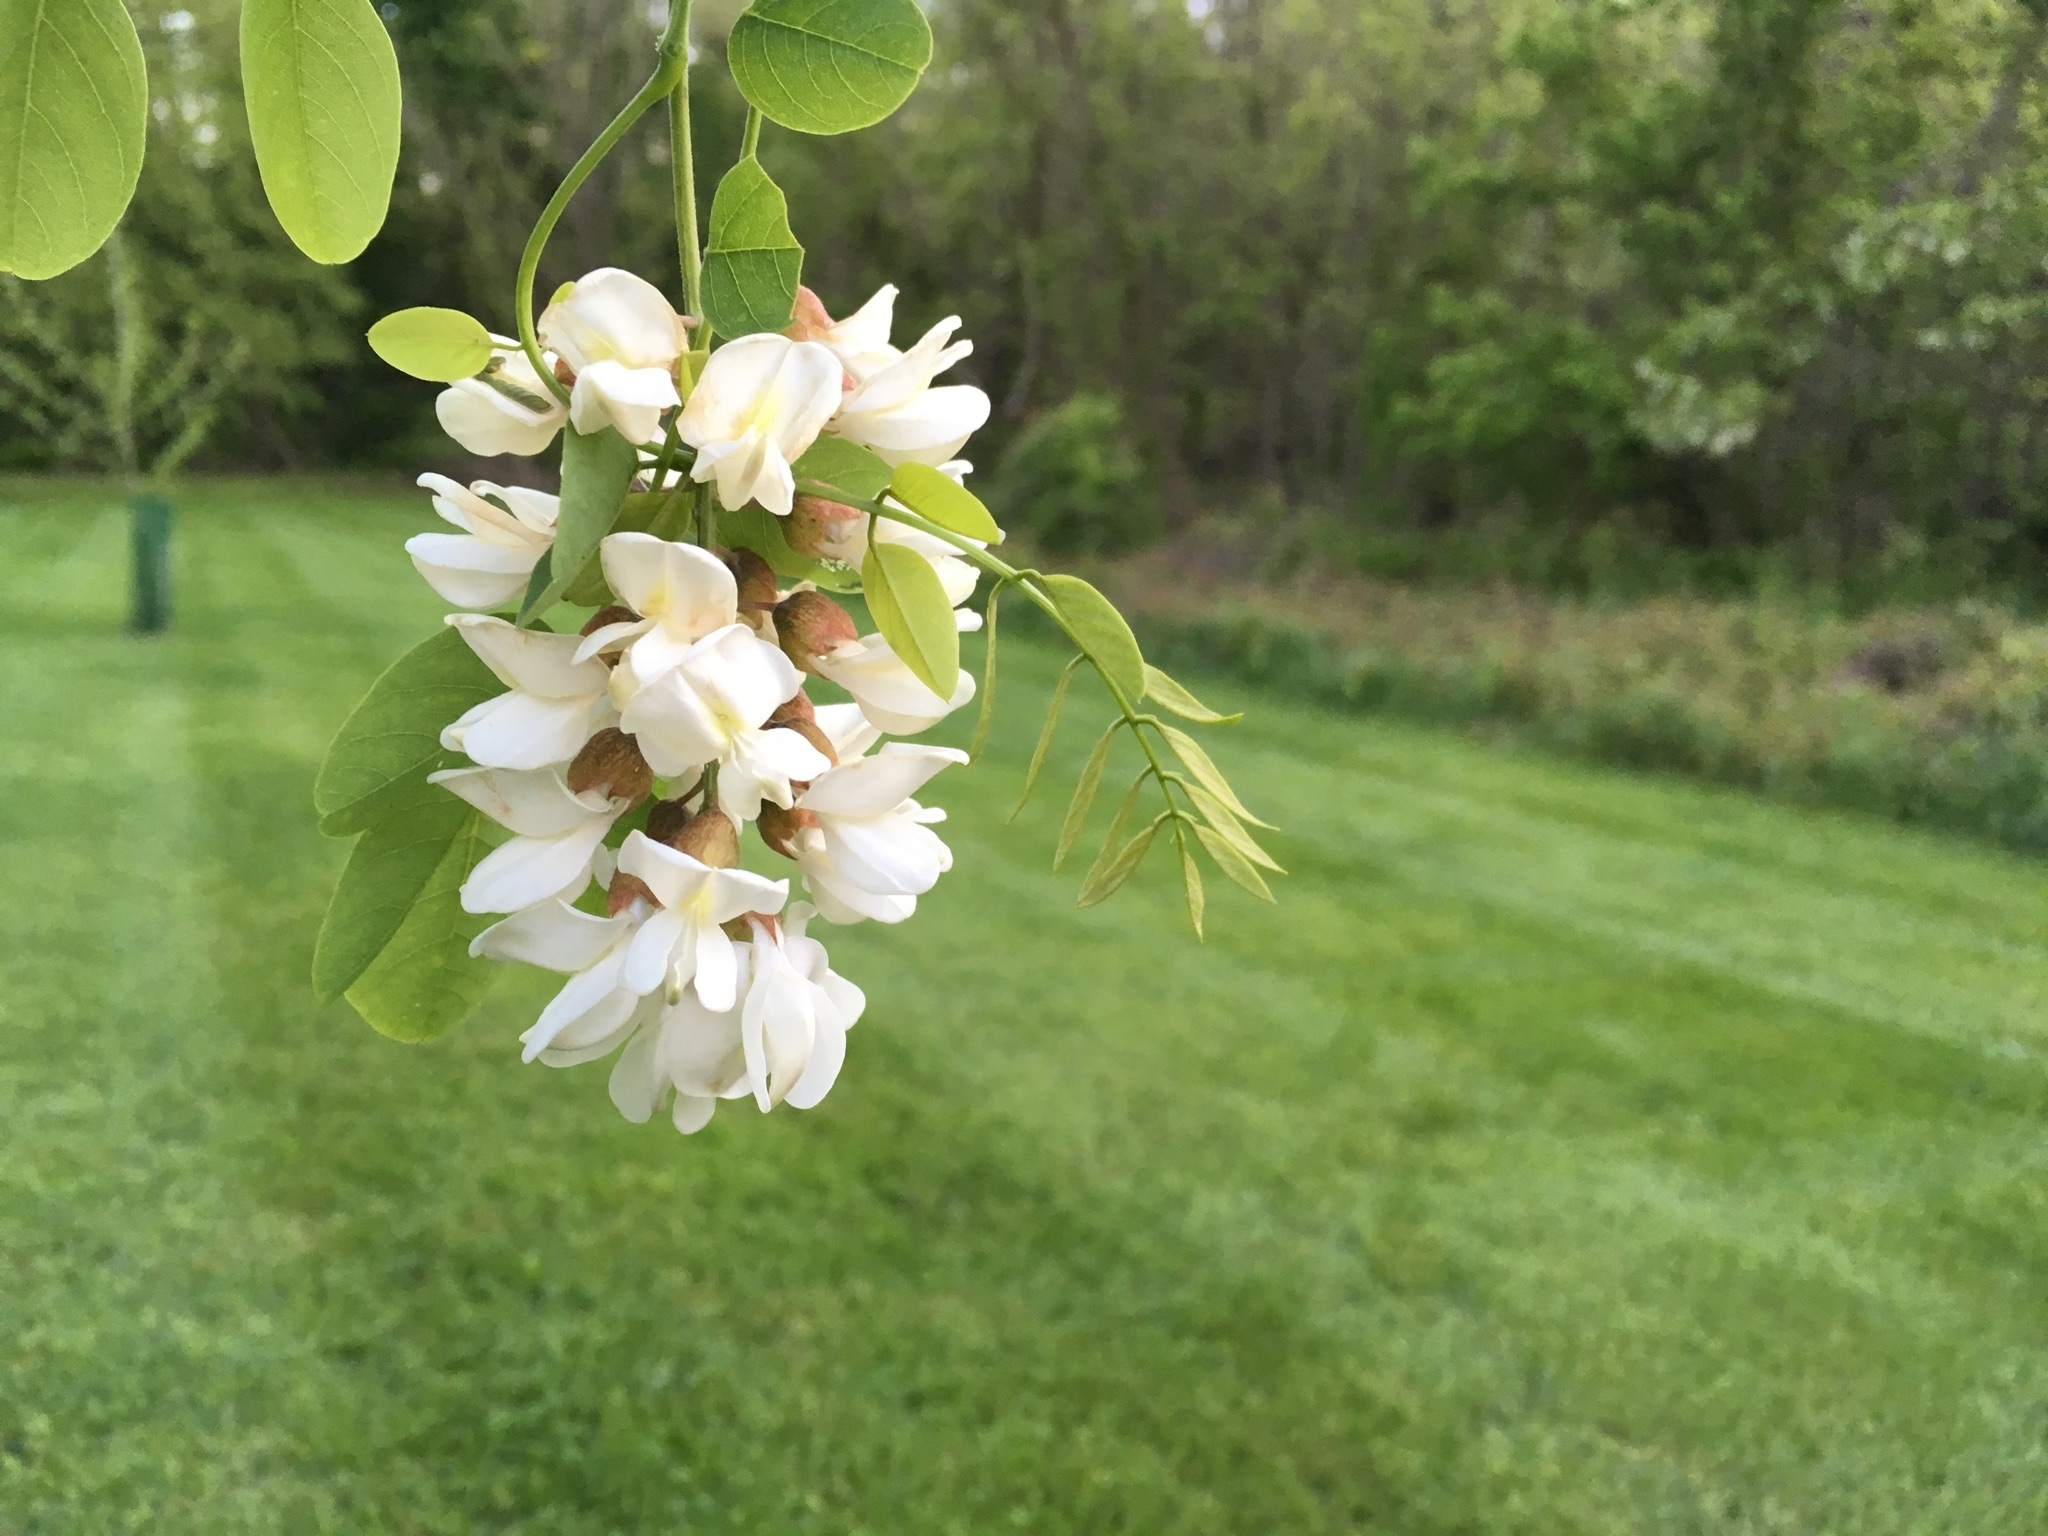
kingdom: Plantae
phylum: Tracheophyta
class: Magnoliopsida
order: Fabales
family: Fabaceae
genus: Robinia
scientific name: Robinia pseudoacacia
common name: Black locust
